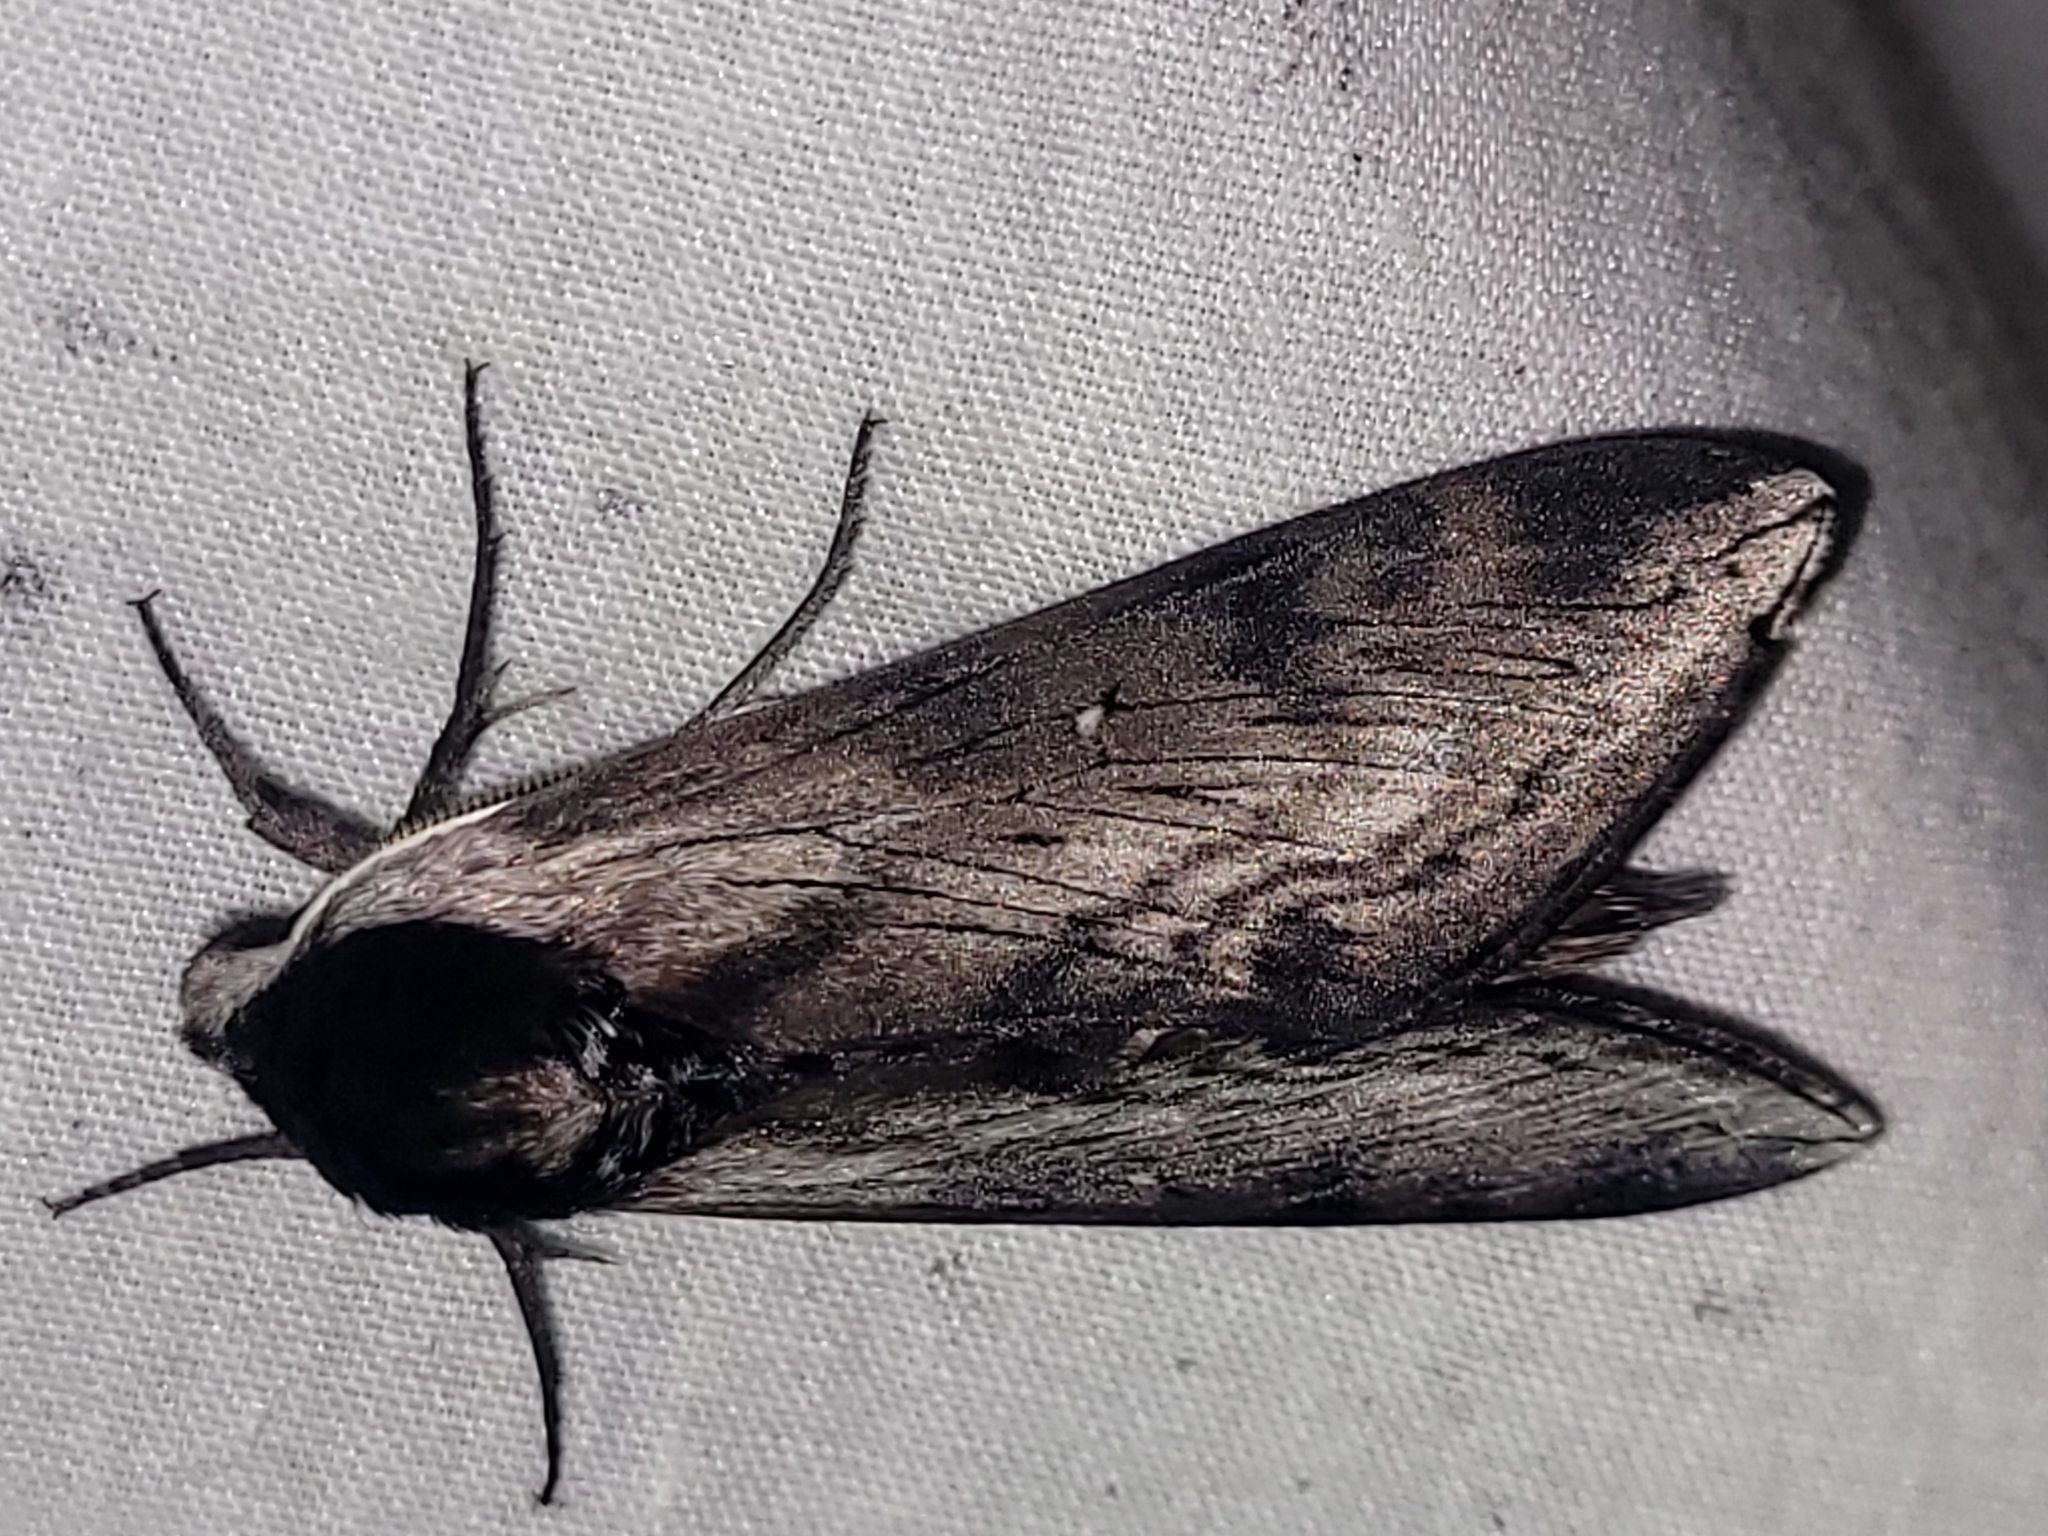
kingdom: Animalia
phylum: Arthropoda
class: Insecta
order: Lepidoptera
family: Sphingidae
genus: Sphinx
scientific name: Sphinx gordius
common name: Apple sphinx
